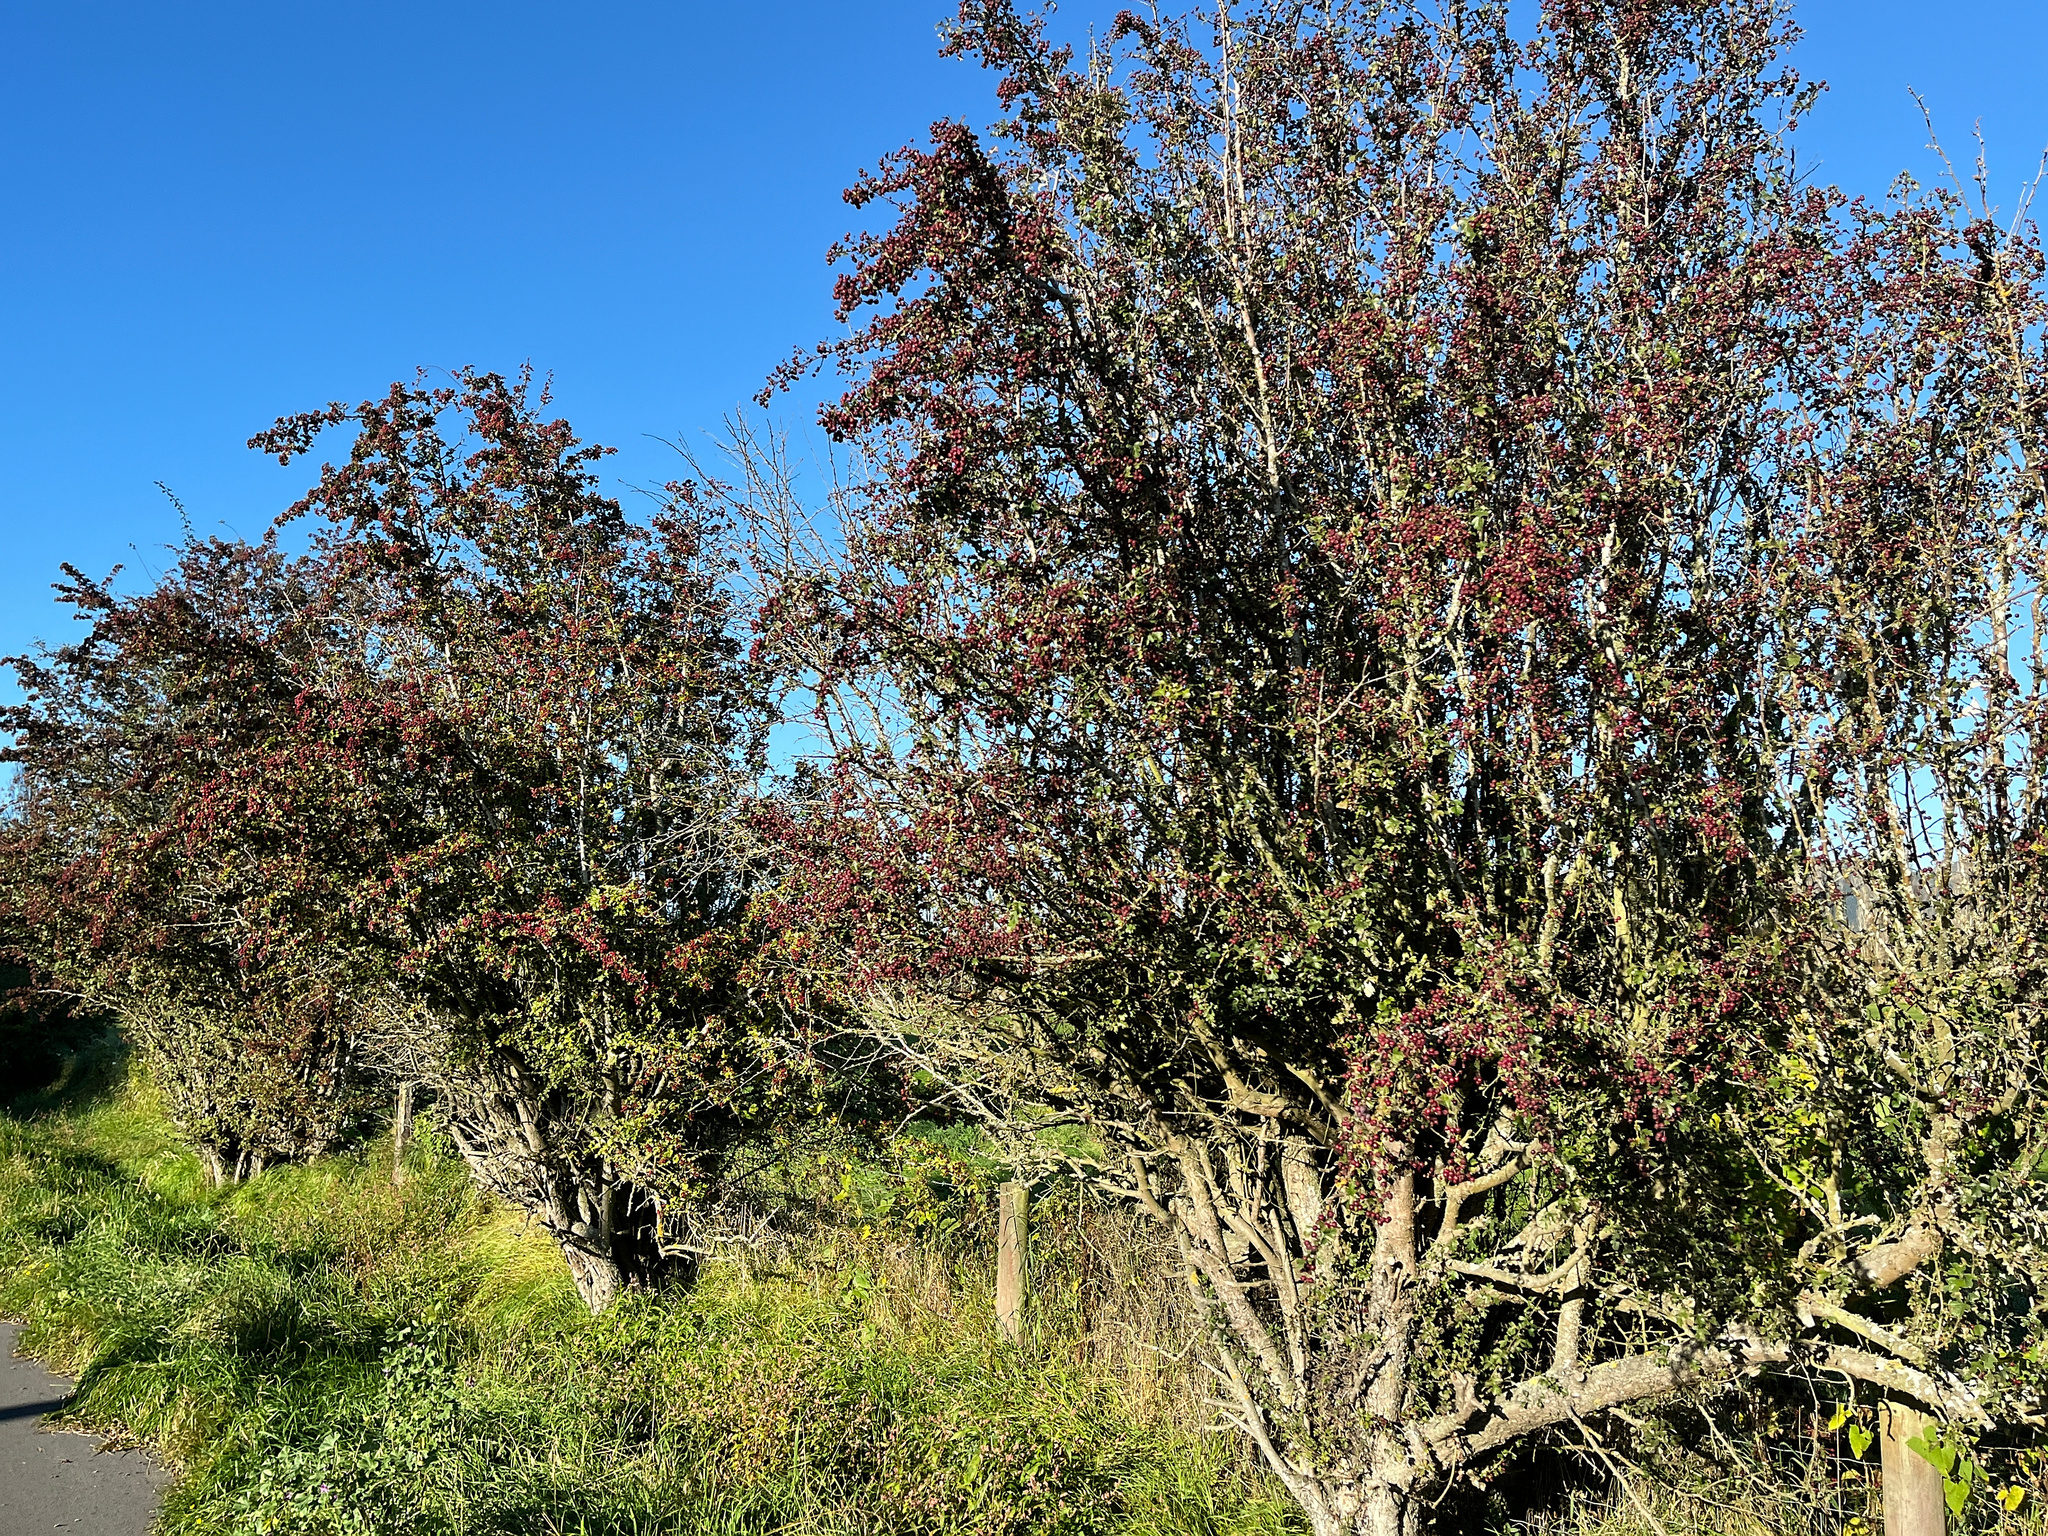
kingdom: Plantae
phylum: Tracheophyta
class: Magnoliopsida
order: Rosales
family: Rosaceae
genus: Crataegus
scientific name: Crataegus monogyna
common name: Hawthorn
